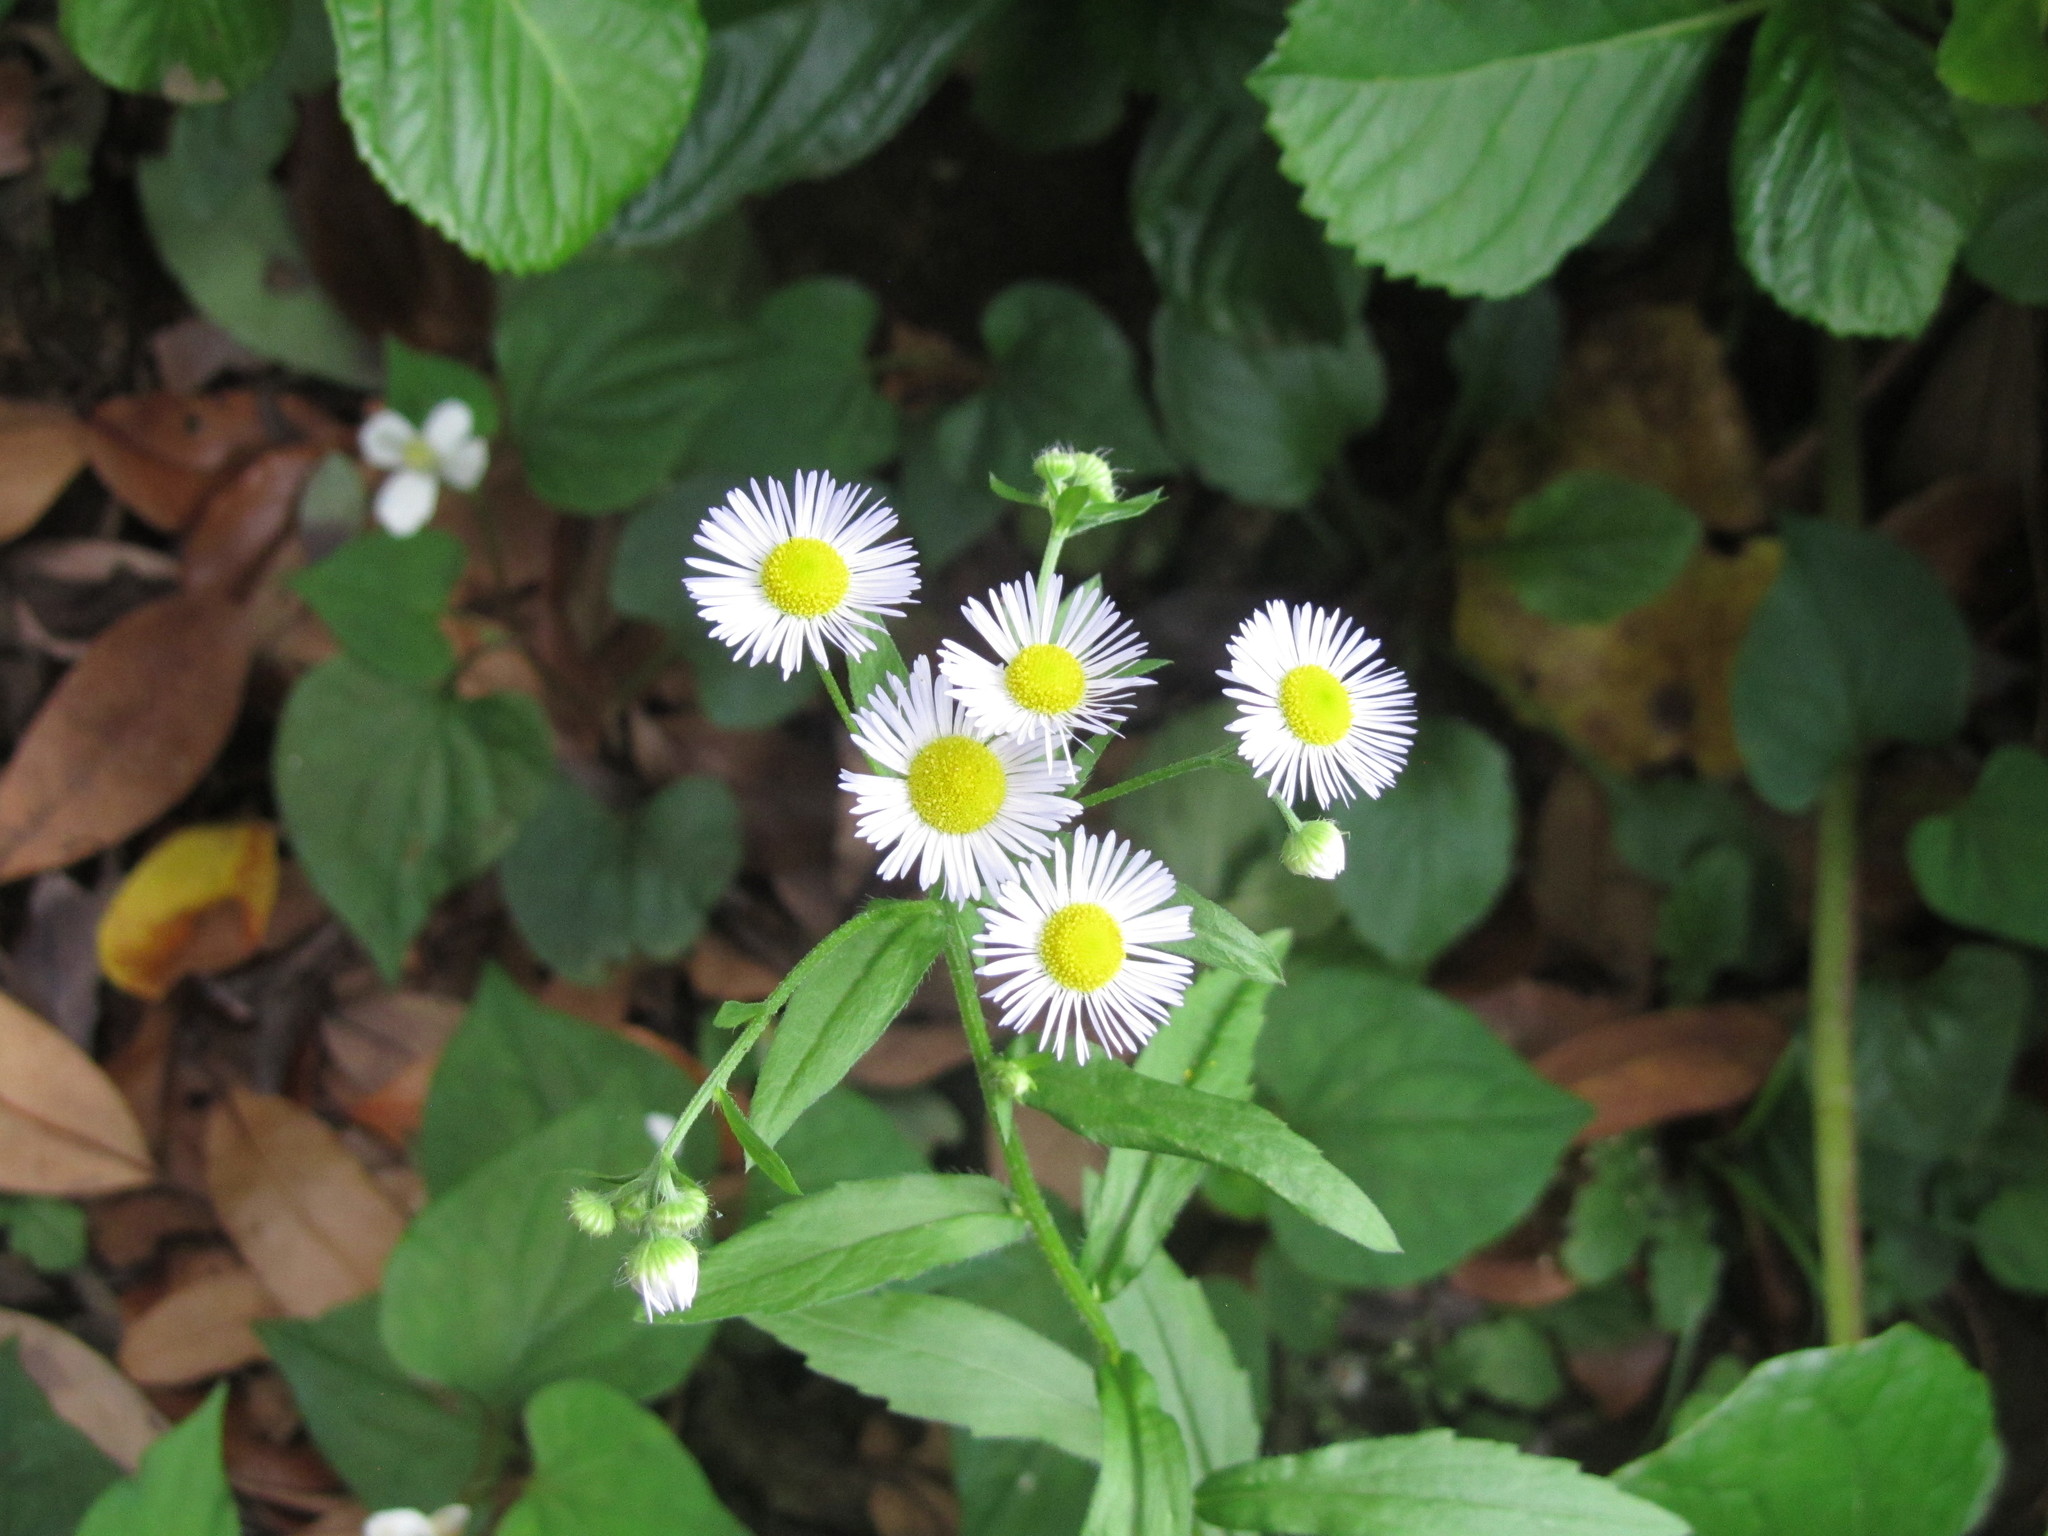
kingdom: Plantae
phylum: Tracheophyta
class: Magnoliopsida
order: Asterales
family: Asteraceae
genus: Erigeron
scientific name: Erigeron annuus
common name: Tall fleabane
